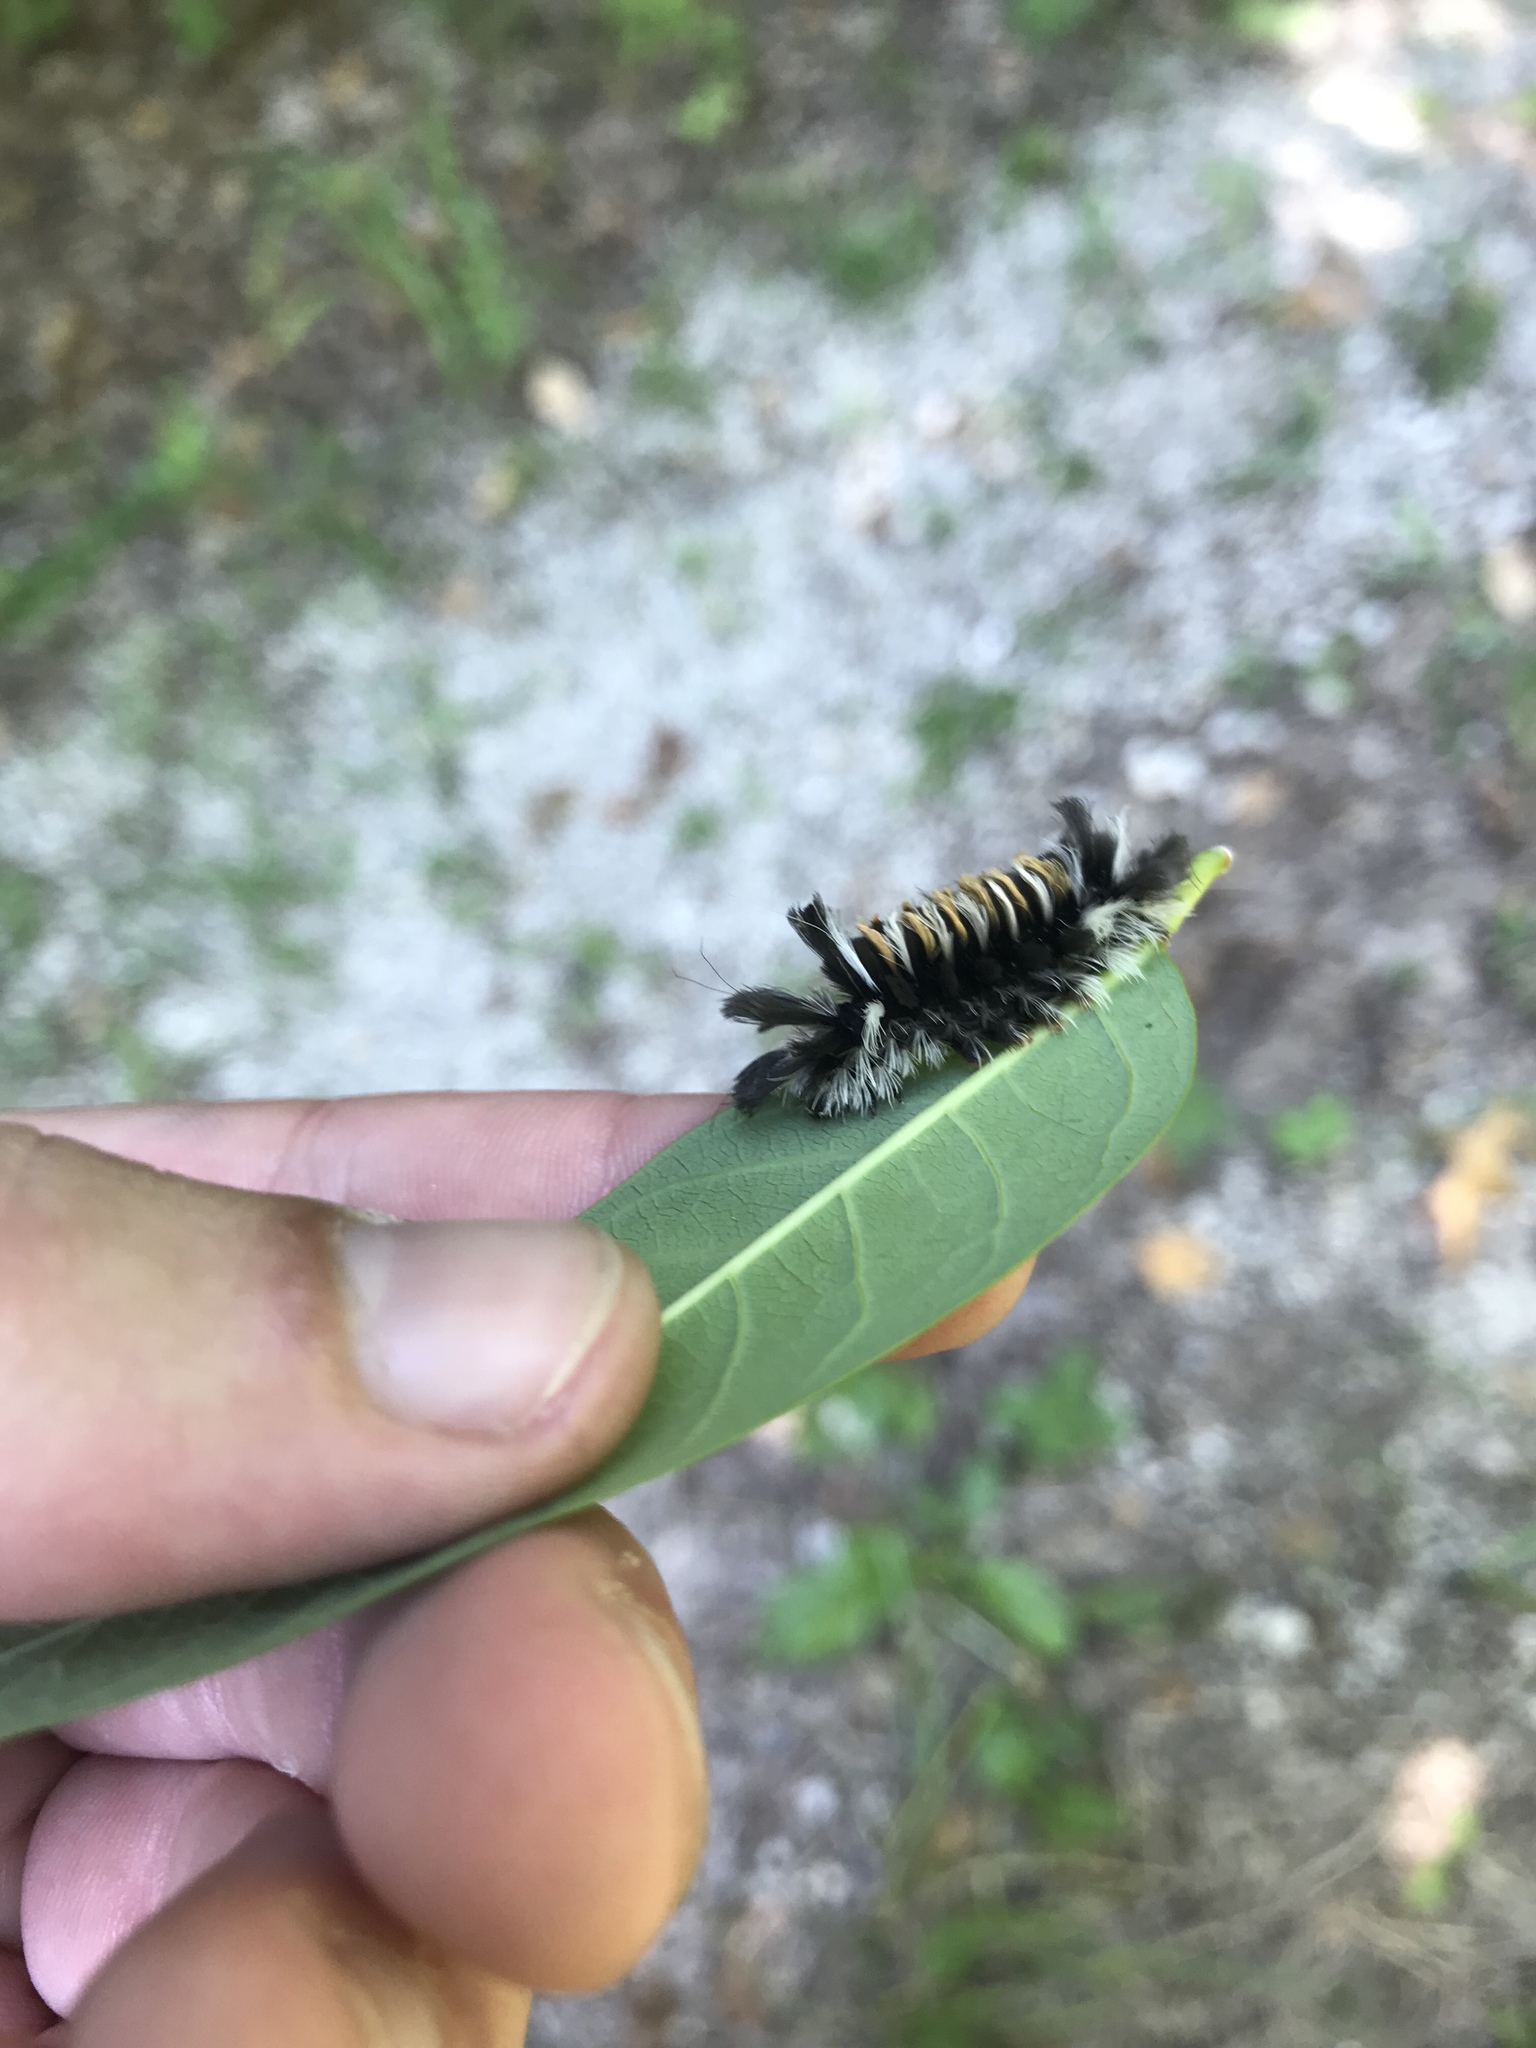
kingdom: Animalia
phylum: Arthropoda
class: Insecta
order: Lepidoptera
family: Erebidae
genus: Euchaetes
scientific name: Euchaetes egle
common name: Milkweed tussock moth
